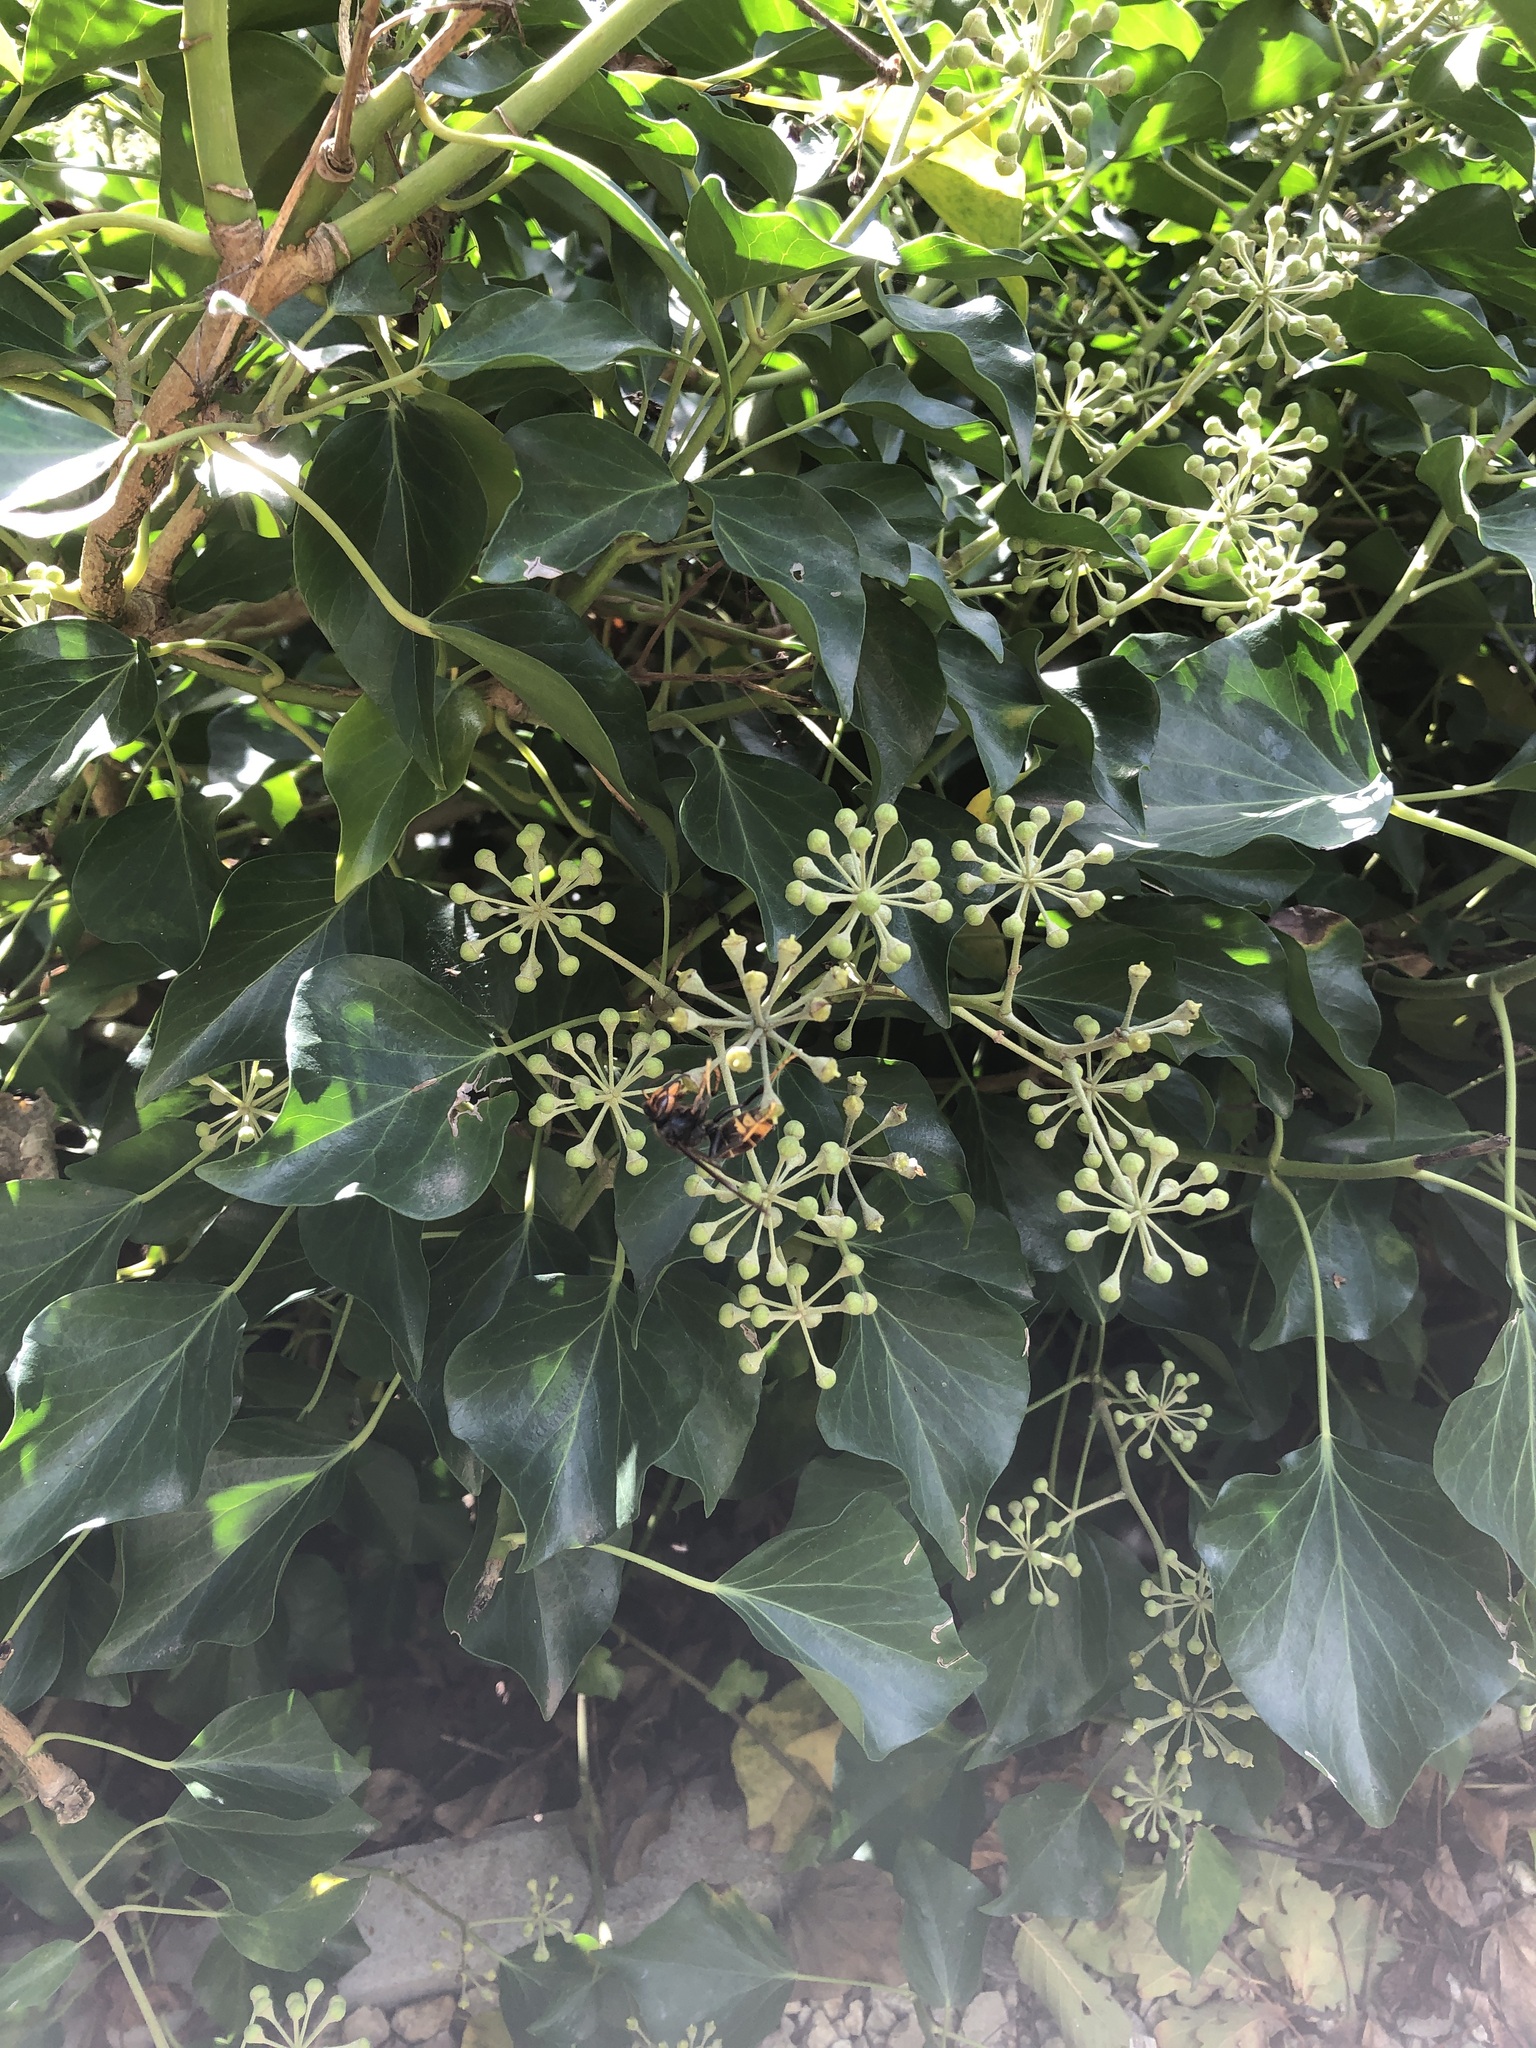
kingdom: Animalia
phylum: Arthropoda
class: Insecta
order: Hymenoptera
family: Vespidae
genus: Vespa
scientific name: Vespa velutina
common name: Asian hornet
